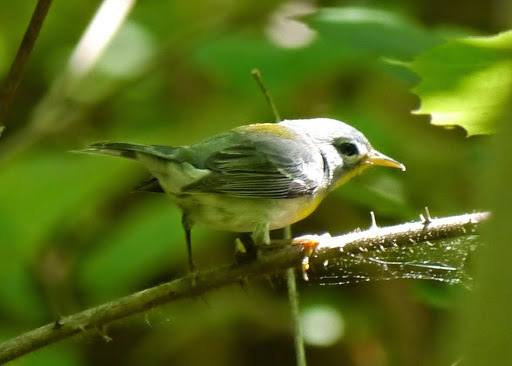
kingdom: Animalia
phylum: Chordata
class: Aves
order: Passeriformes
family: Parulidae
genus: Setophaga
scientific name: Setophaga americana
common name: Northern parula
